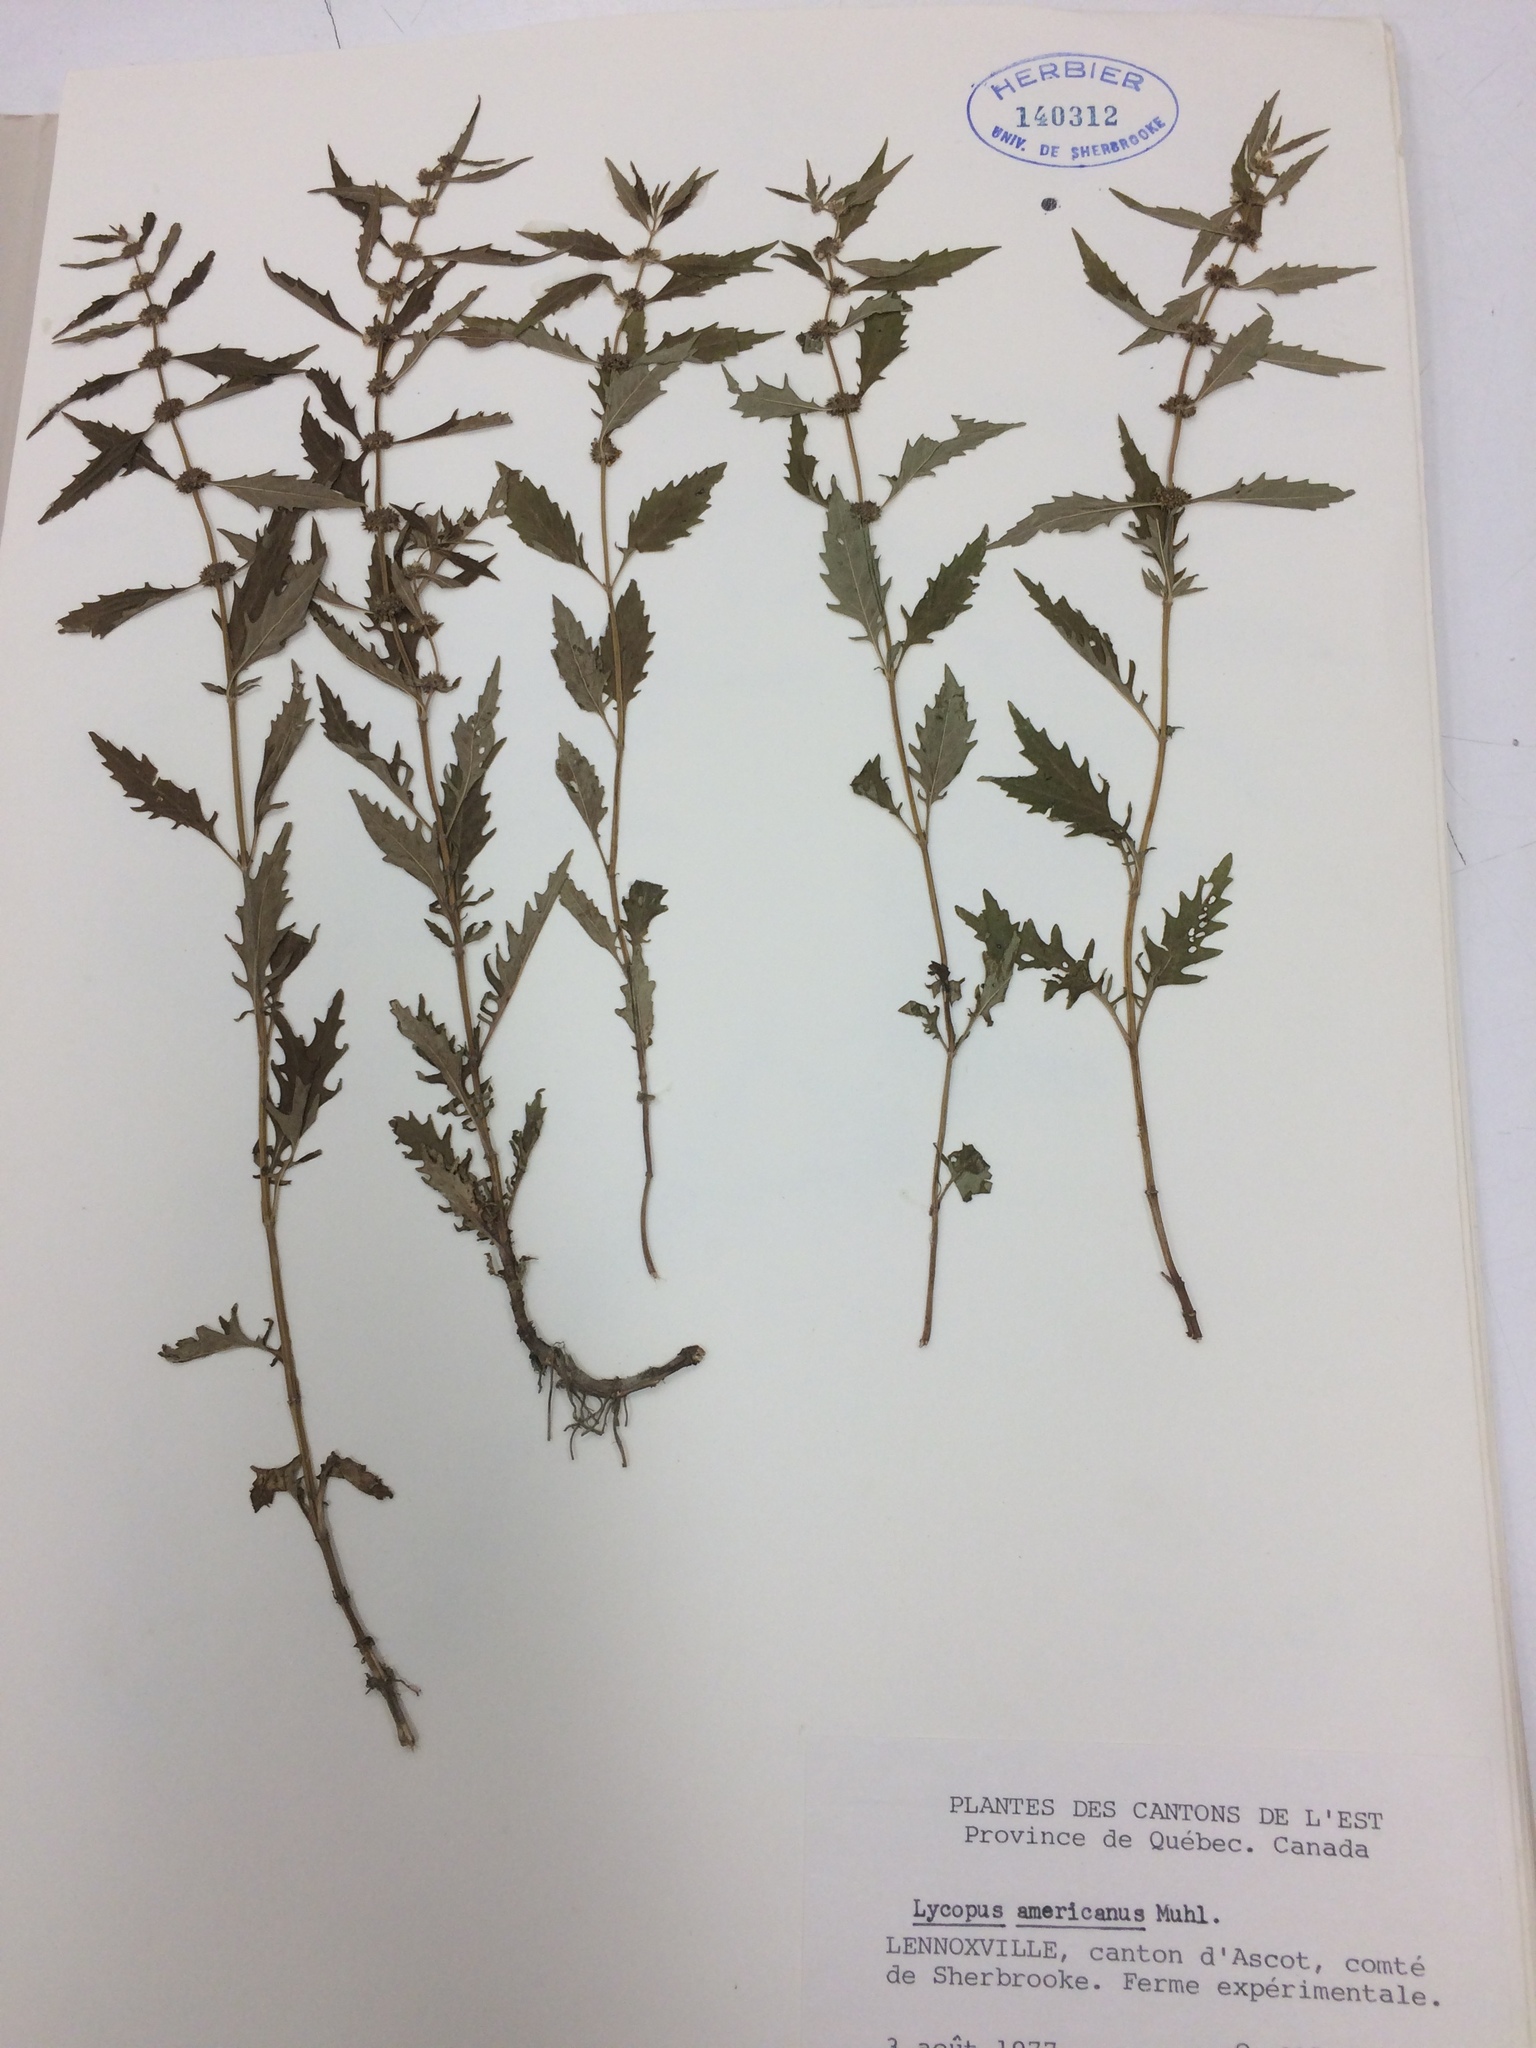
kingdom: Plantae
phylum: Tracheophyta
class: Magnoliopsida
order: Lamiales
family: Lamiaceae
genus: Lycopus
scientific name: Lycopus americanus
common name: American bugleweed
